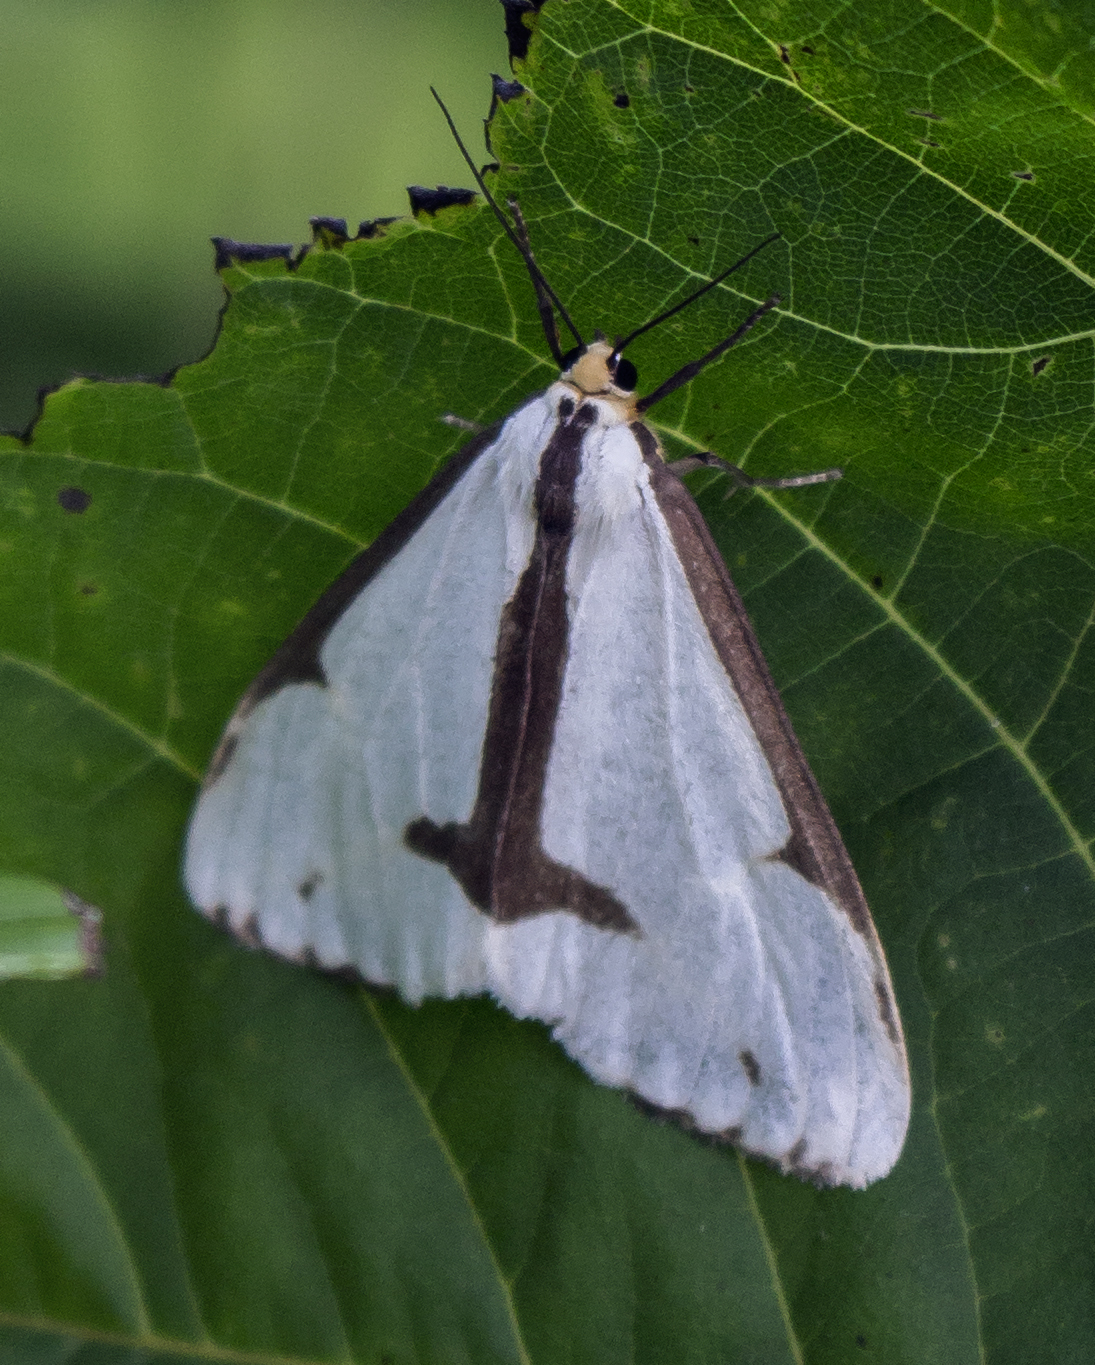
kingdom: Animalia
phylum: Arthropoda
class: Insecta
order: Lepidoptera
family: Erebidae
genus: Haploa
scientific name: Haploa lecontei
